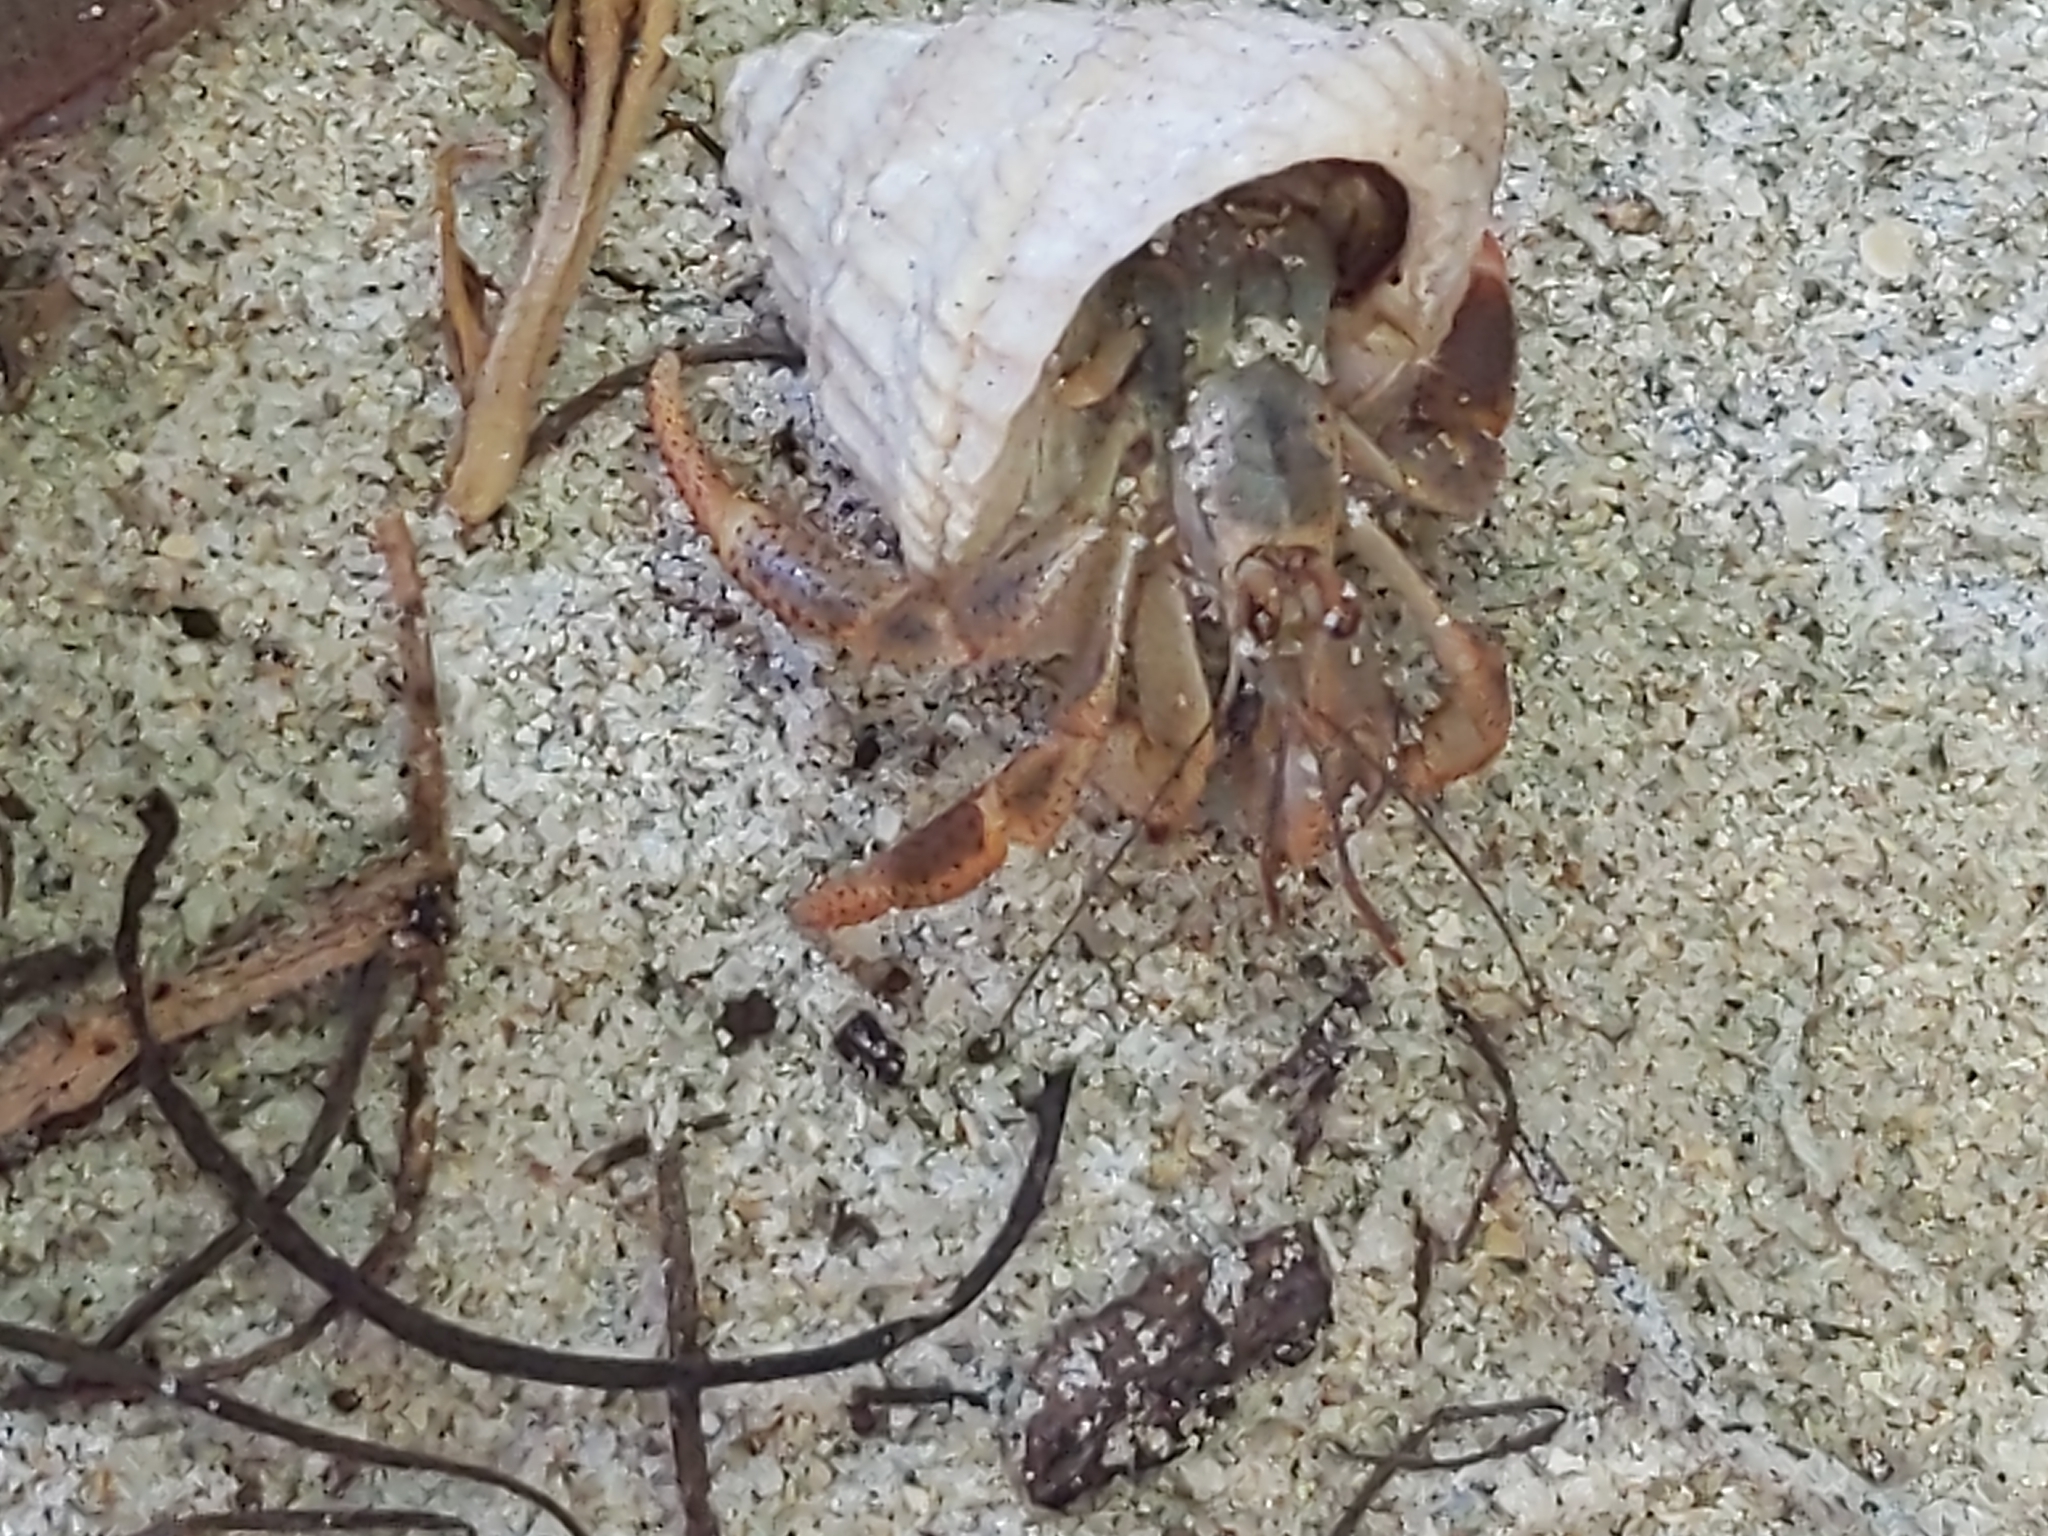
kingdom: Animalia
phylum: Arthropoda
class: Malacostraca
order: Decapoda
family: Coenobitidae
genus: Coenobita
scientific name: Coenobita clypeatus
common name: Caribbean hermit crab
